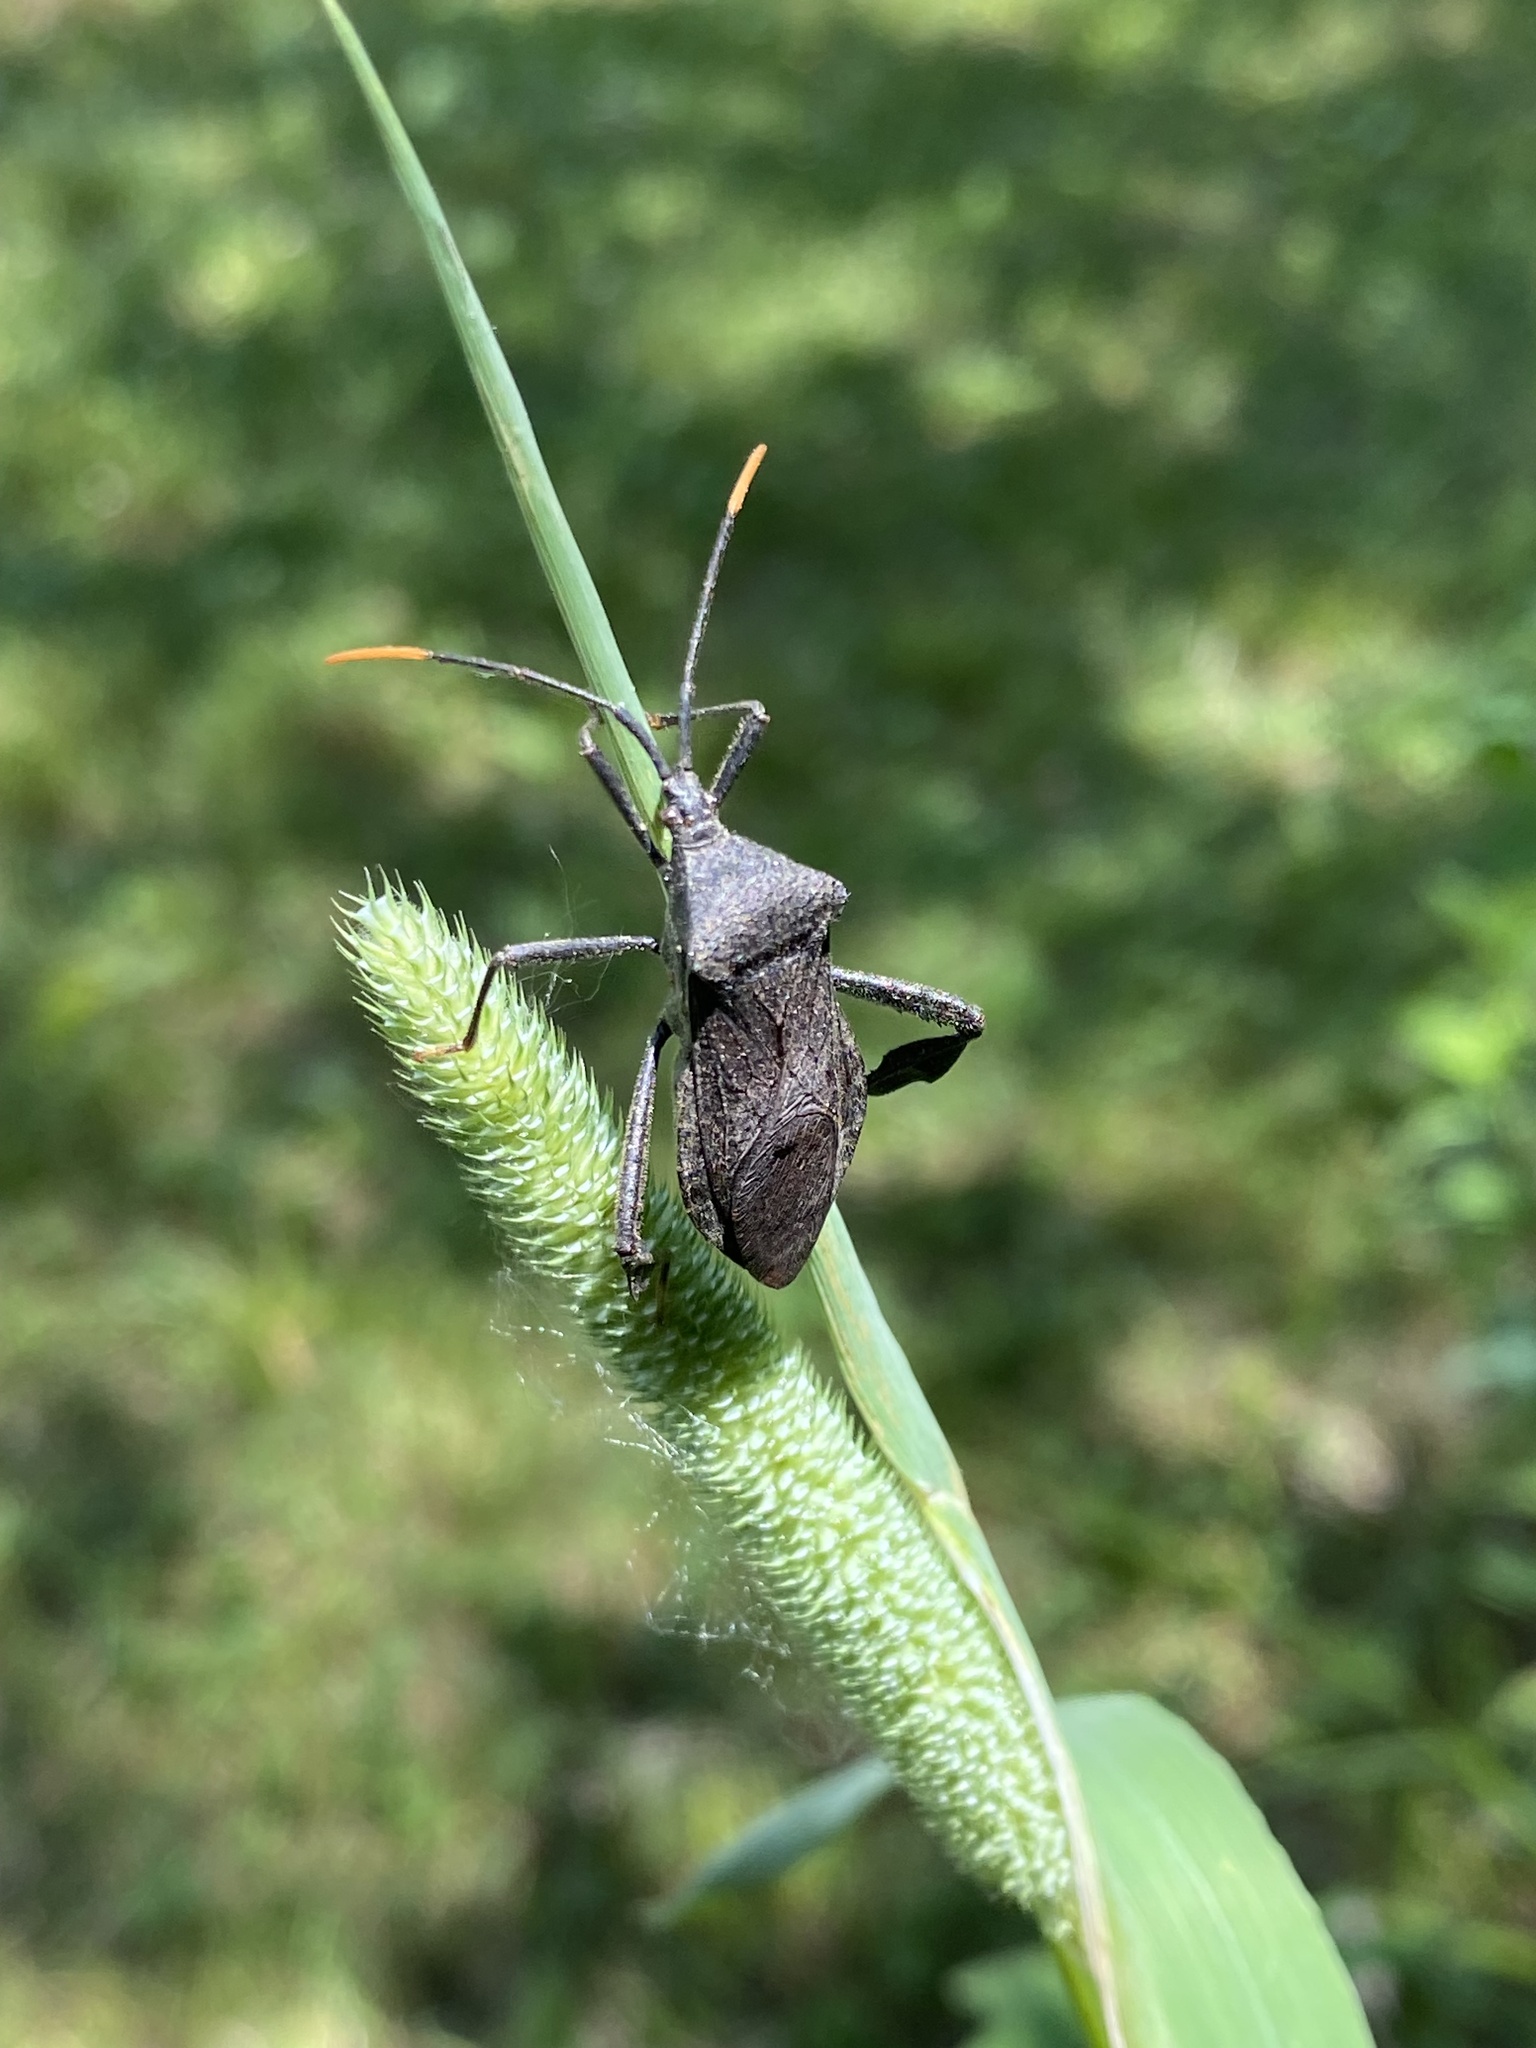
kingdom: Plantae
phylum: Tracheophyta
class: Liliopsida
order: Poales
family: Poaceae
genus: Phleum
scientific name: Phleum pratense
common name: Timothy grass
